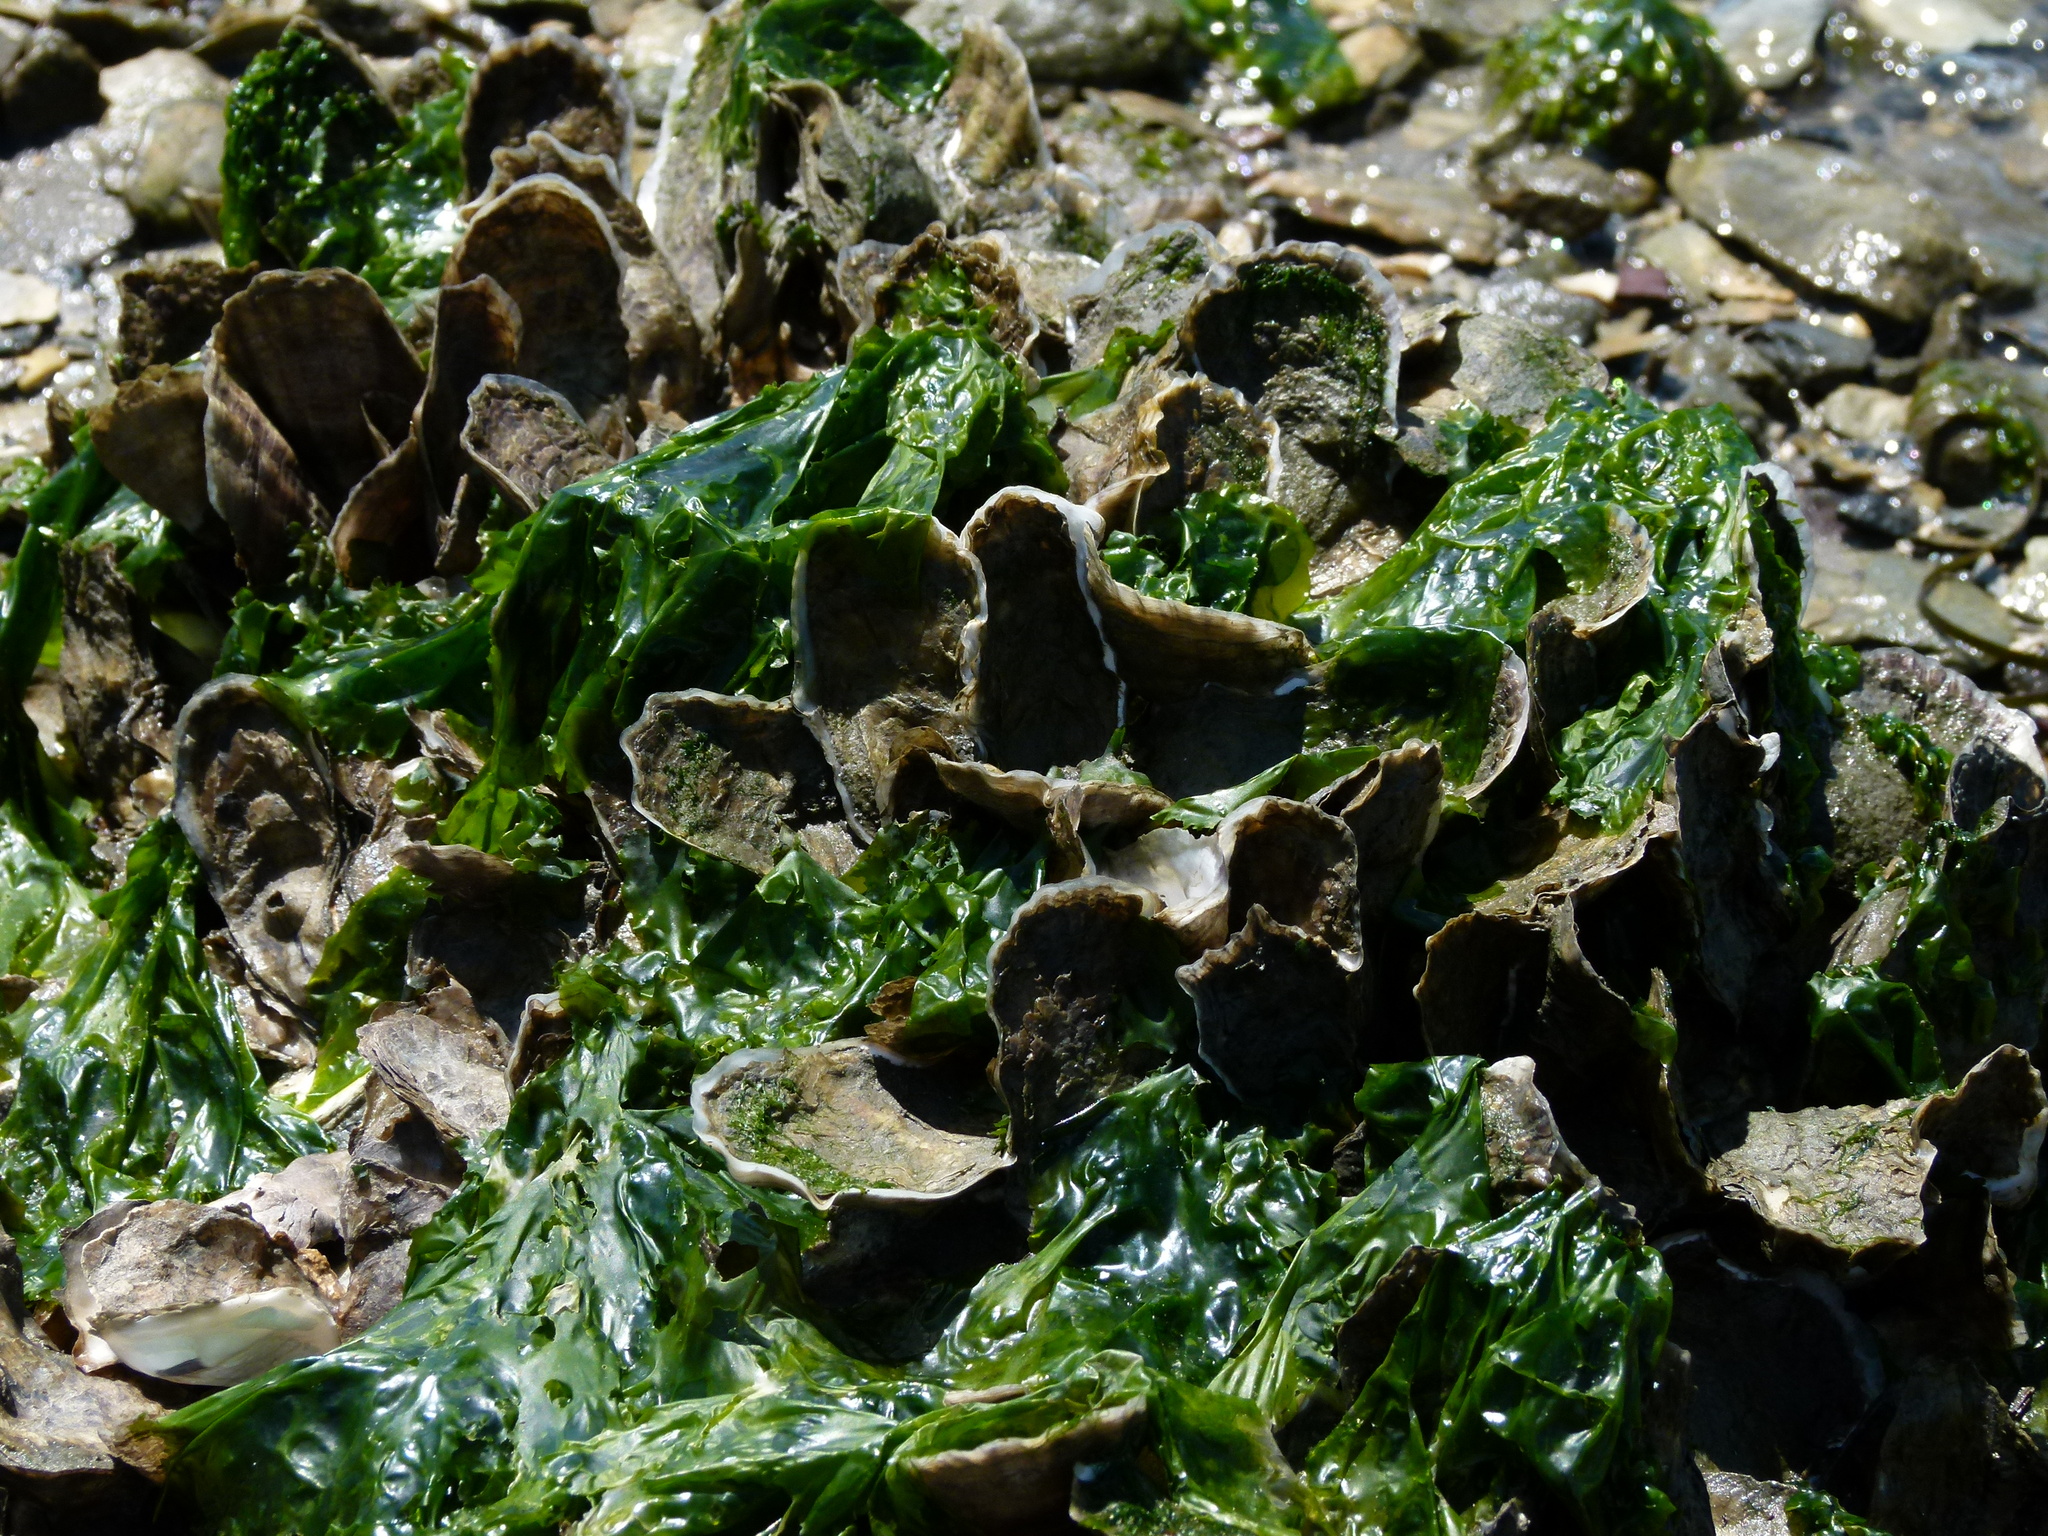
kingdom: Animalia
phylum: Mollusca
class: Bivalvia
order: Ostreida
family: Ostreidae
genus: Crassostrea
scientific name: Crassostrea virginica
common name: American oyster
